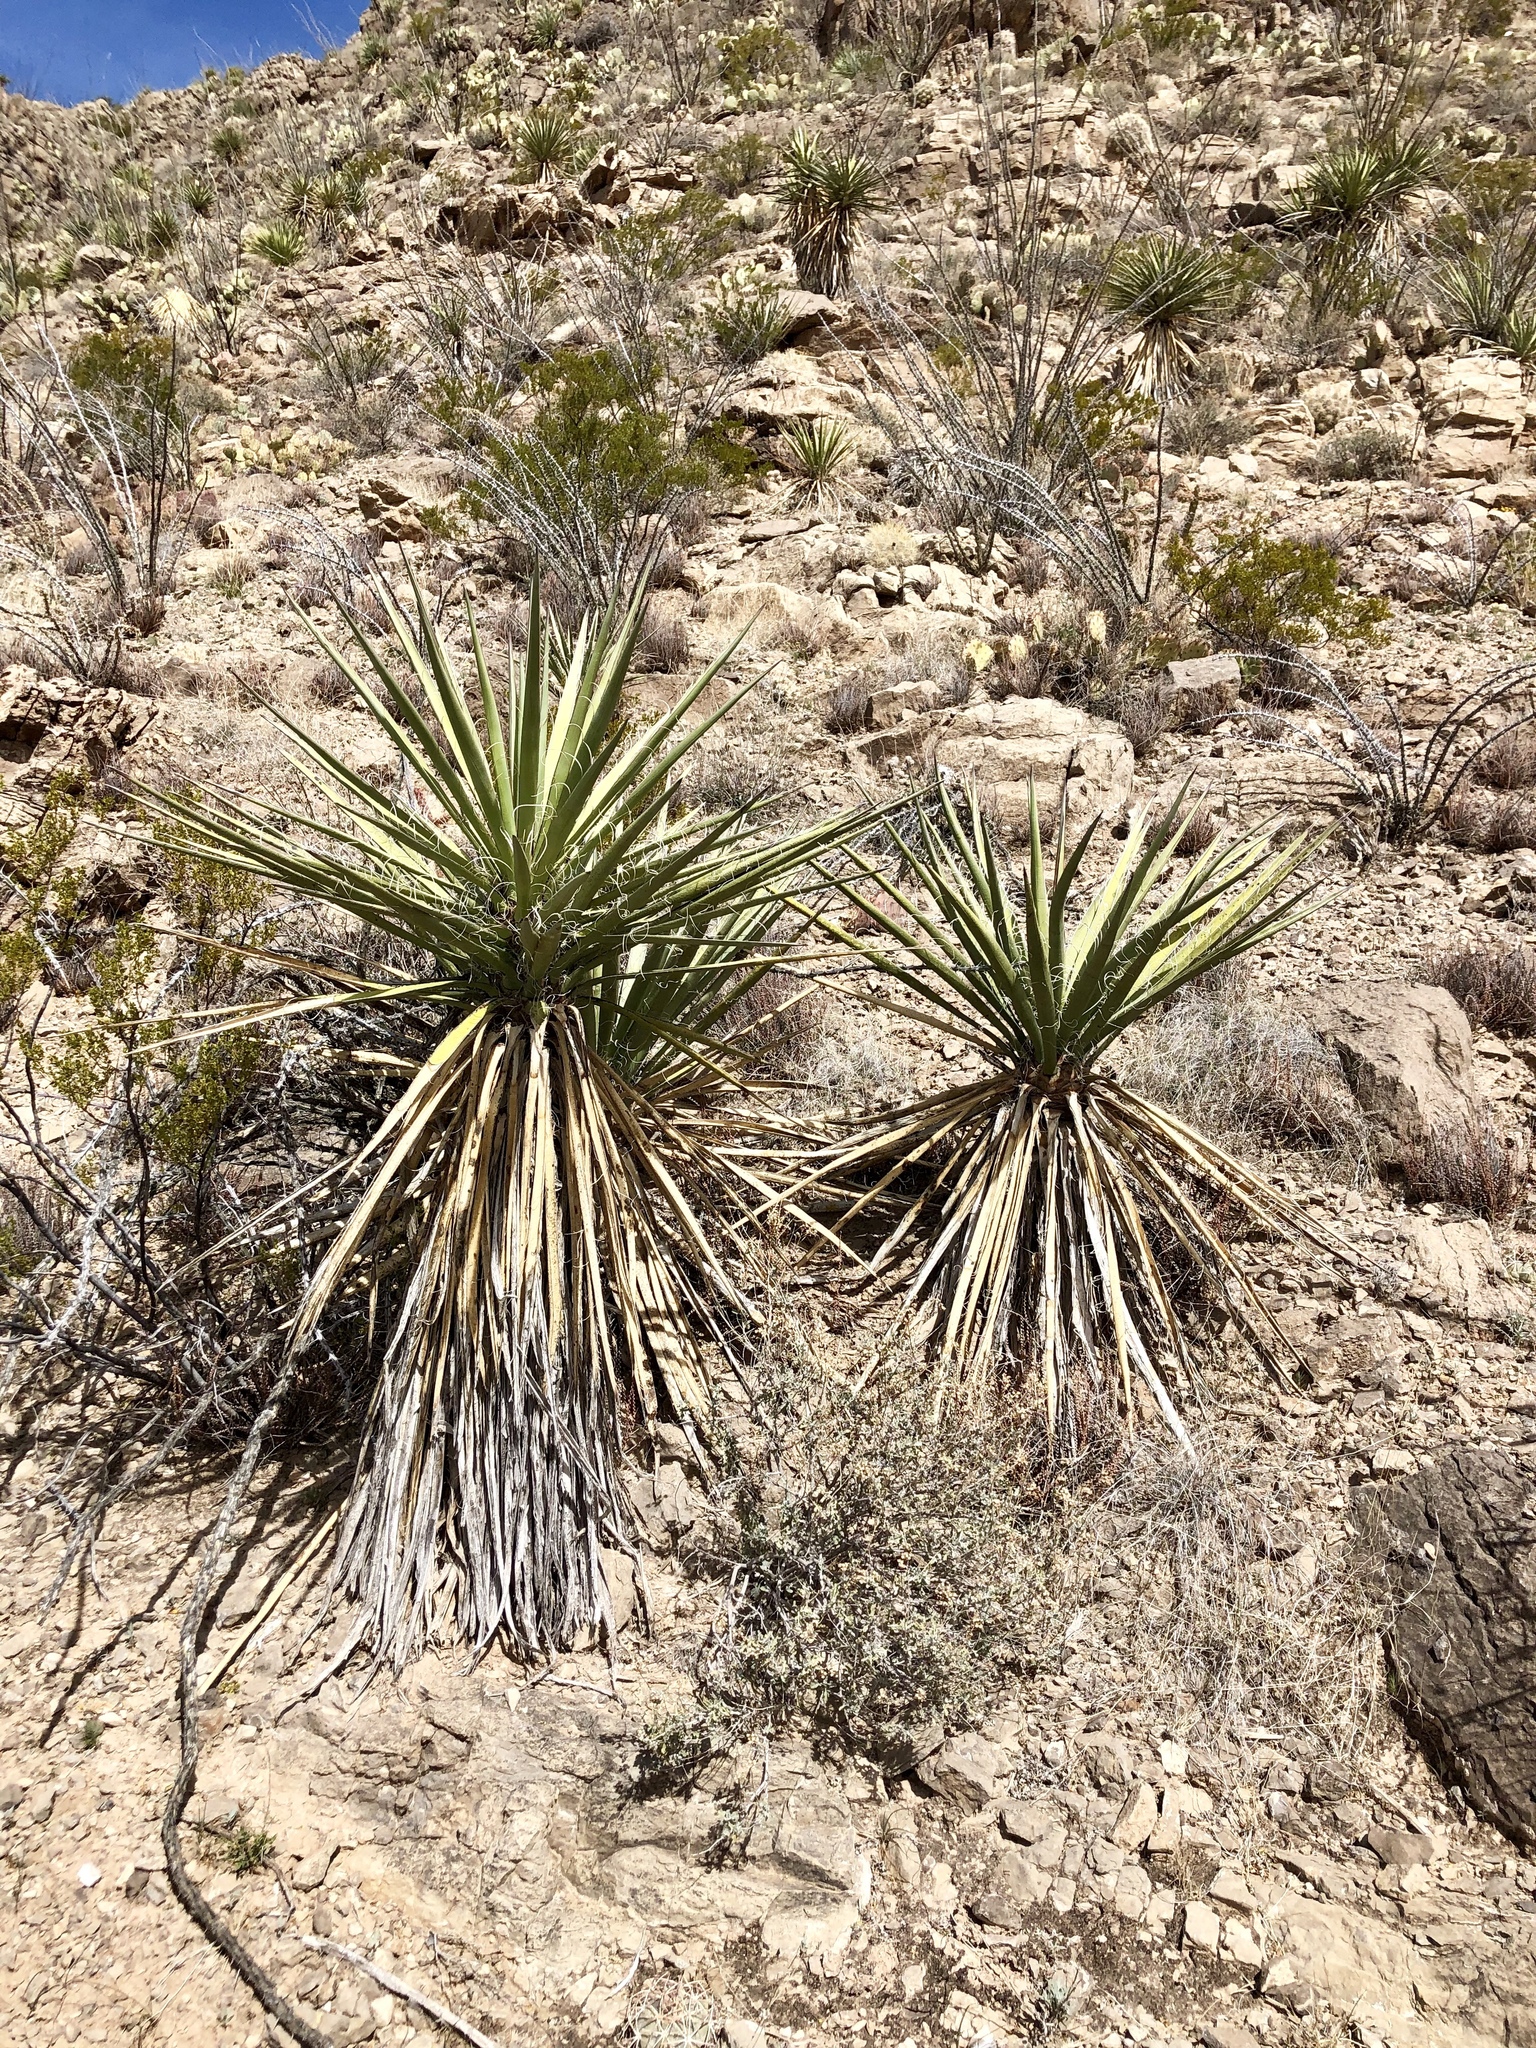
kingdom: Plantae
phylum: Tracheophyta
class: Liliopsida
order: Asparagales
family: Asparagaceae
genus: Yucca
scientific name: Yucca baccata
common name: Banana yucca
